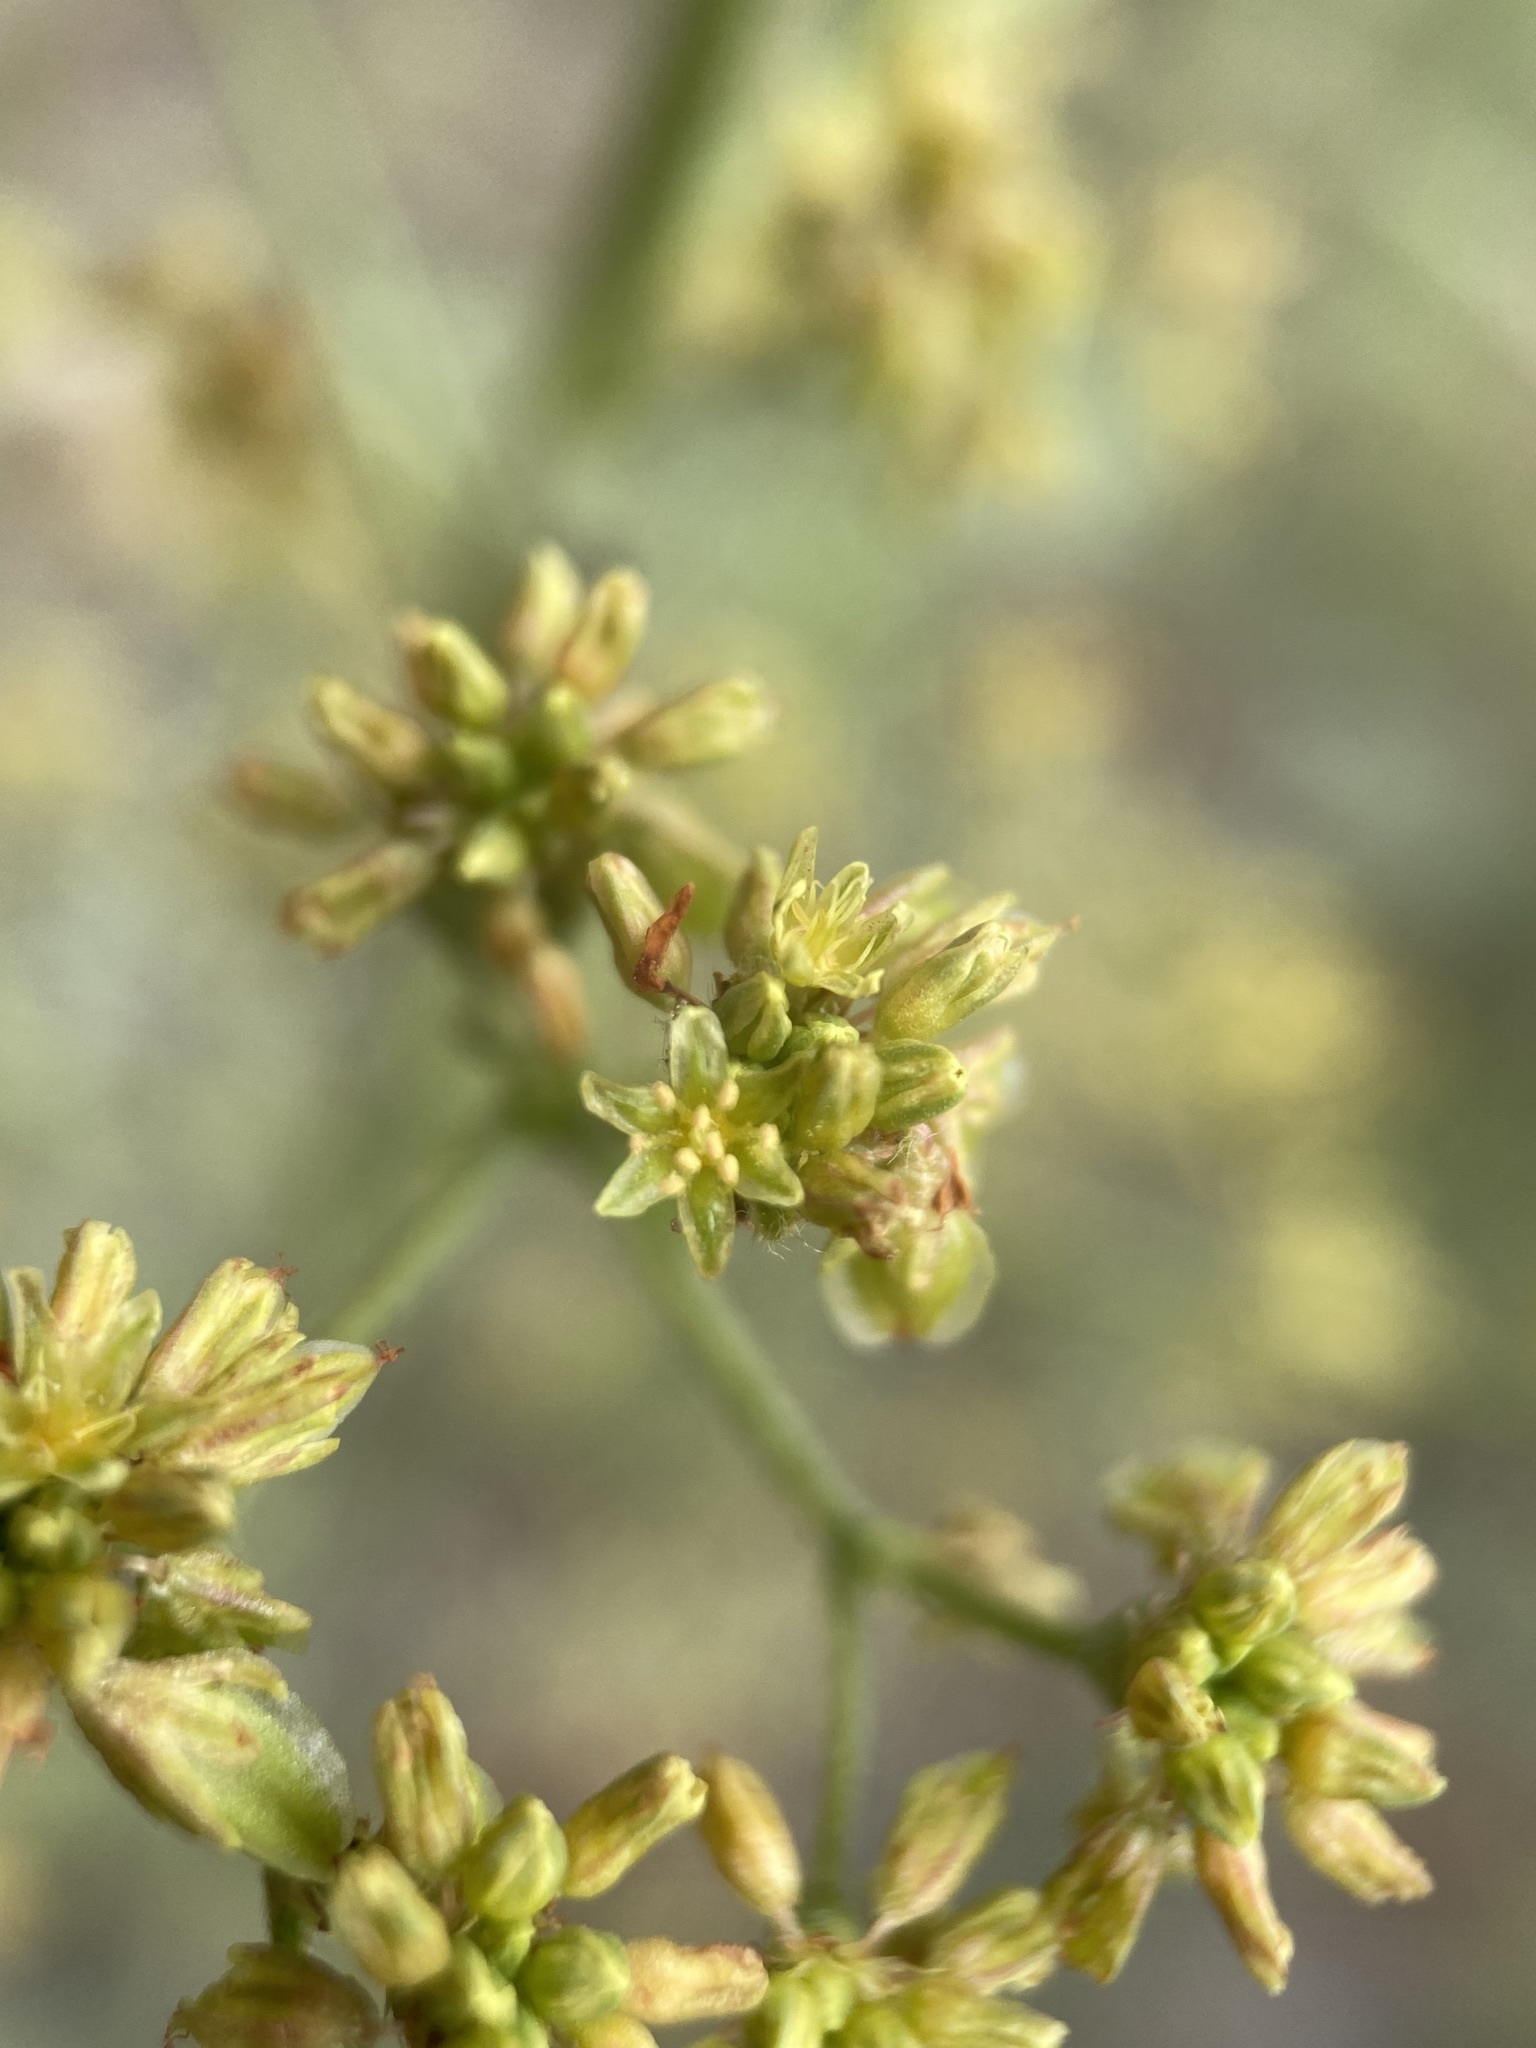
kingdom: Plantae
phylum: Tracheophyta
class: Magnoliopsida
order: Caryophyllales
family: Polygonaceae
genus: Eriogonum
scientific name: Eriogonum alatum
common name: Winged eriogonum
